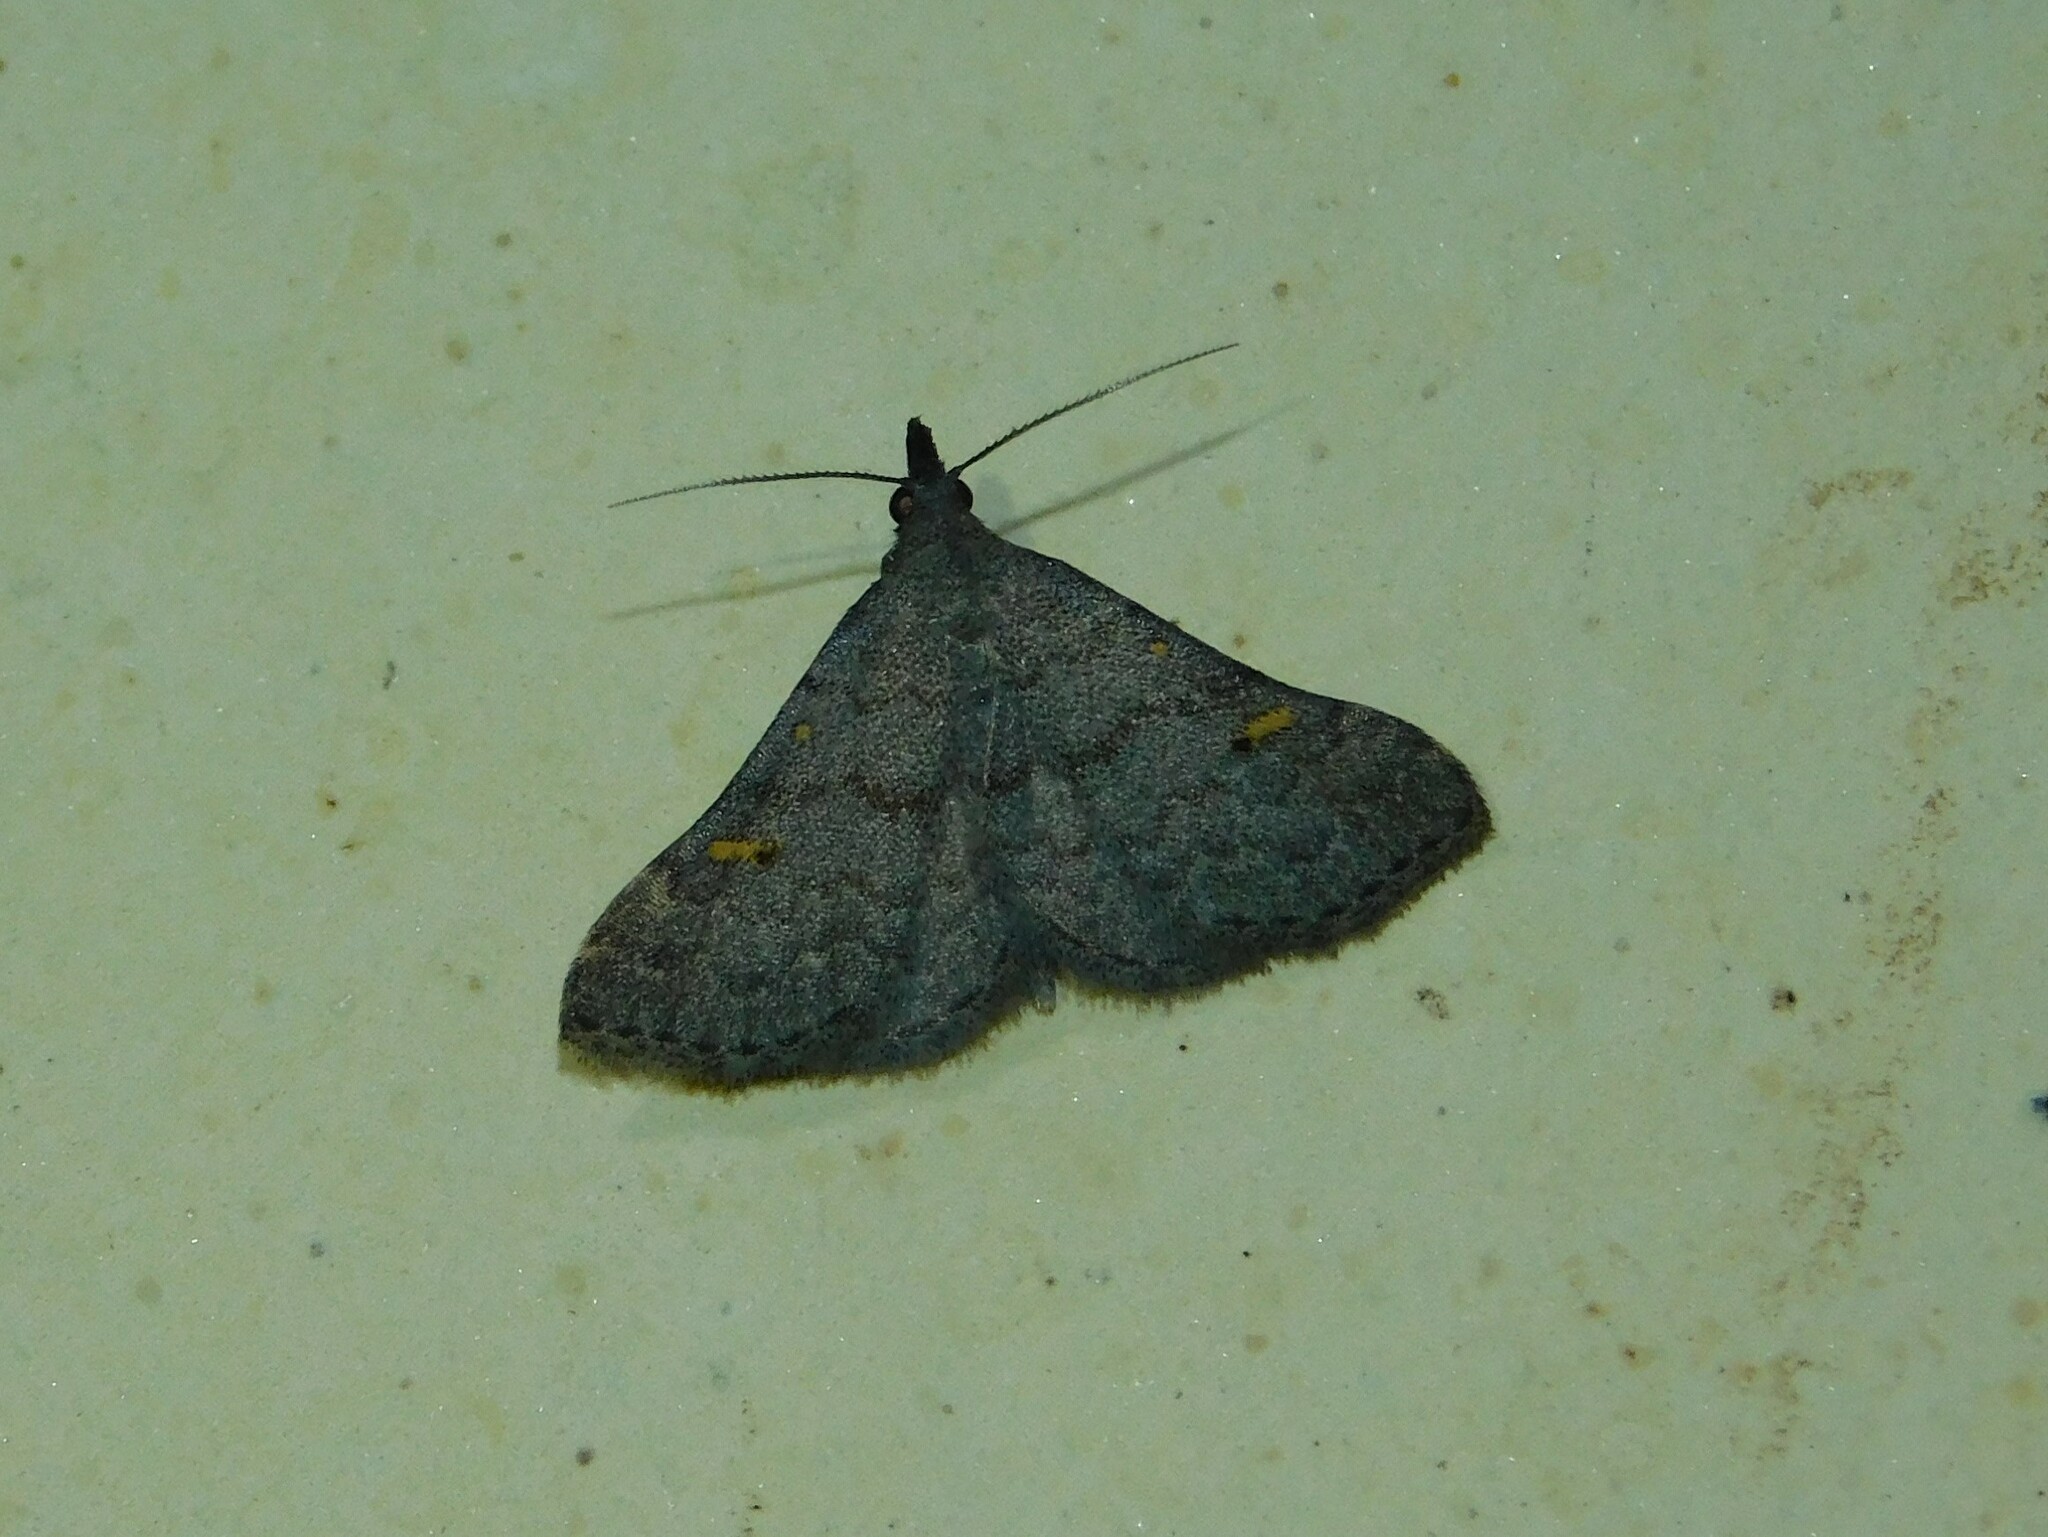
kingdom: Animalia
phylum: Arthropoda
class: Insecta
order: Lepidoptera
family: Erebidae
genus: Naarda
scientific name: Naarda xanthonephroides
